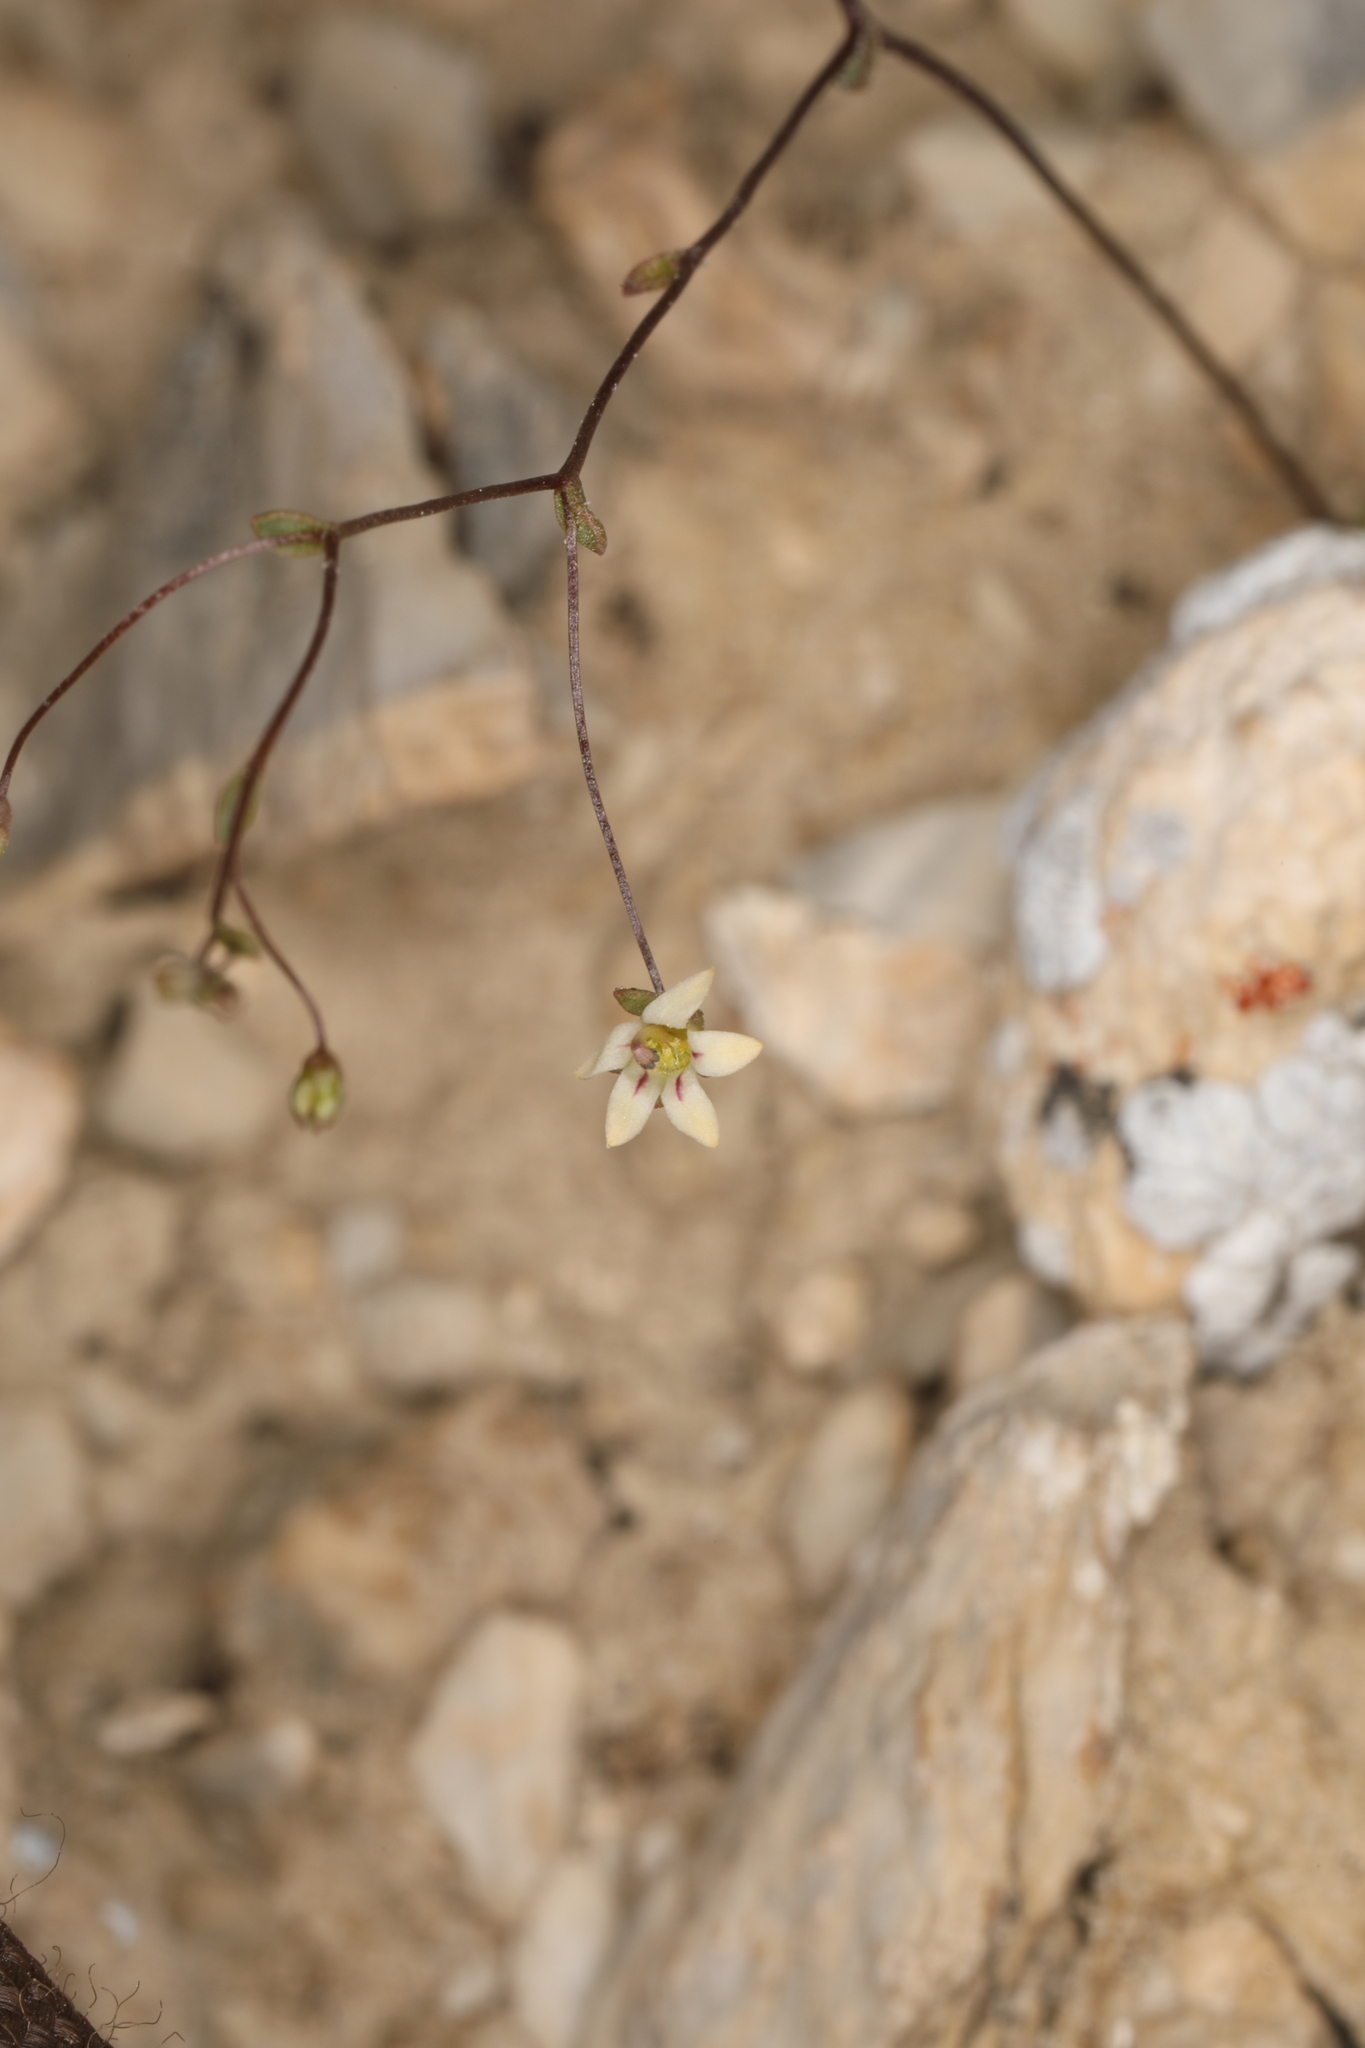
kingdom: Plantae
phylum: Tracheophyta
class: Magnoliopsida
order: Asterales
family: Campanulaceae
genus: Nemacladus
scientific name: Nemacladus inyoensis
